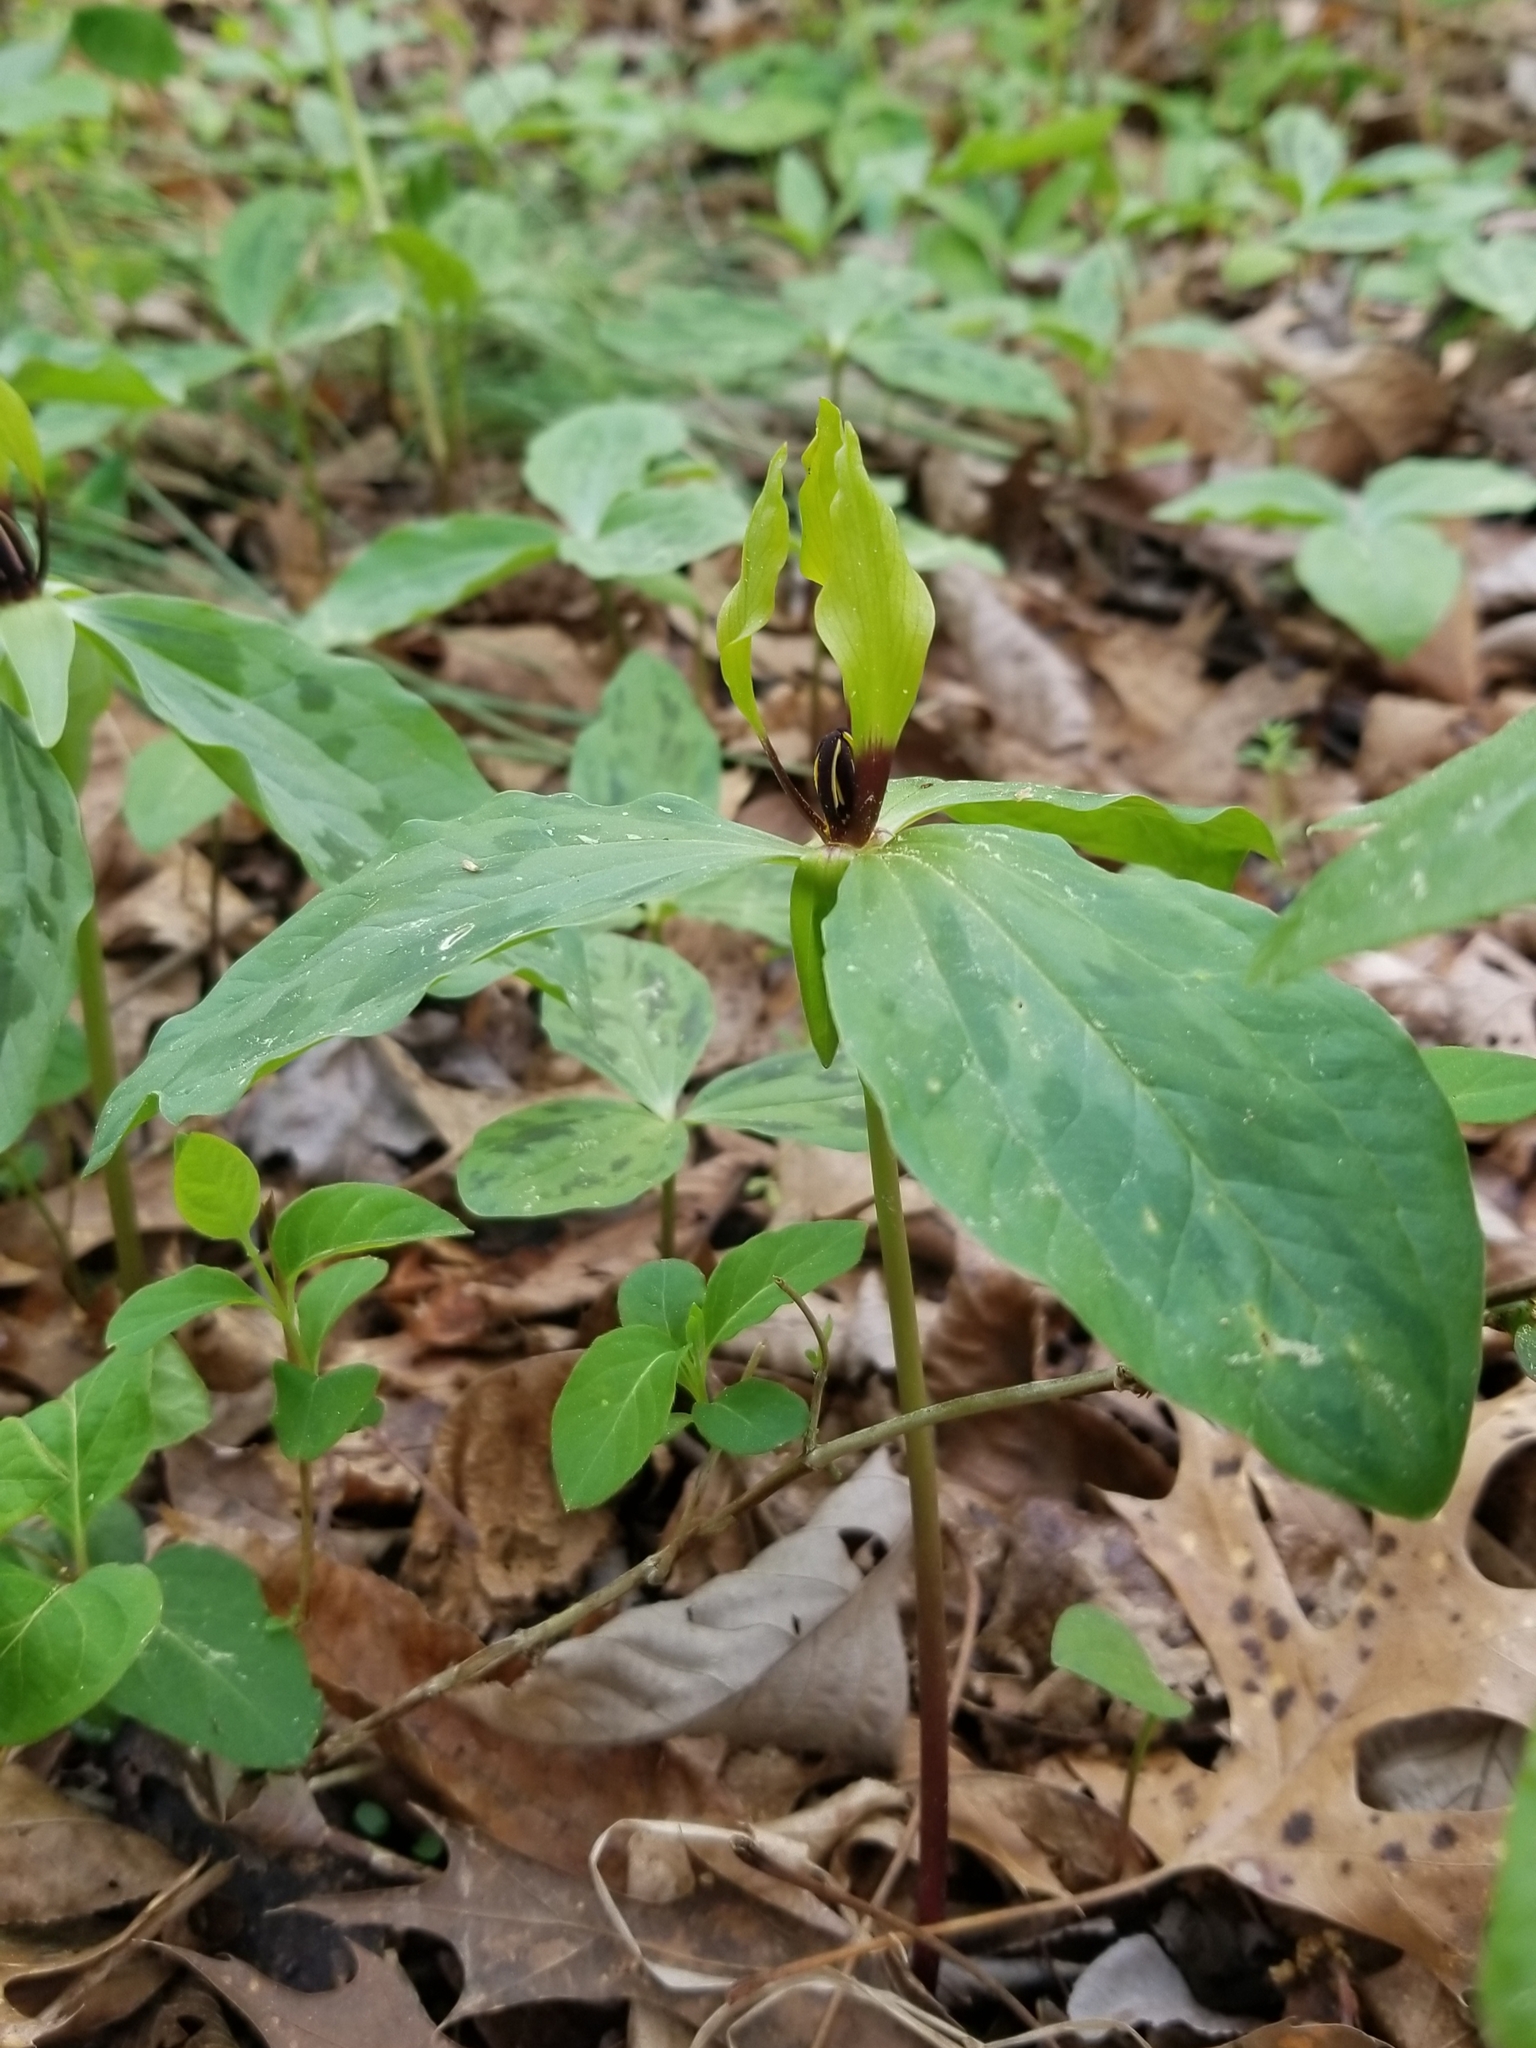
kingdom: Plantae
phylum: Tracheophyta
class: Liliopsida
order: Liliales
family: Melanthiaceae
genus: Trillium
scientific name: Trillium oostingii
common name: Wateree trillium
